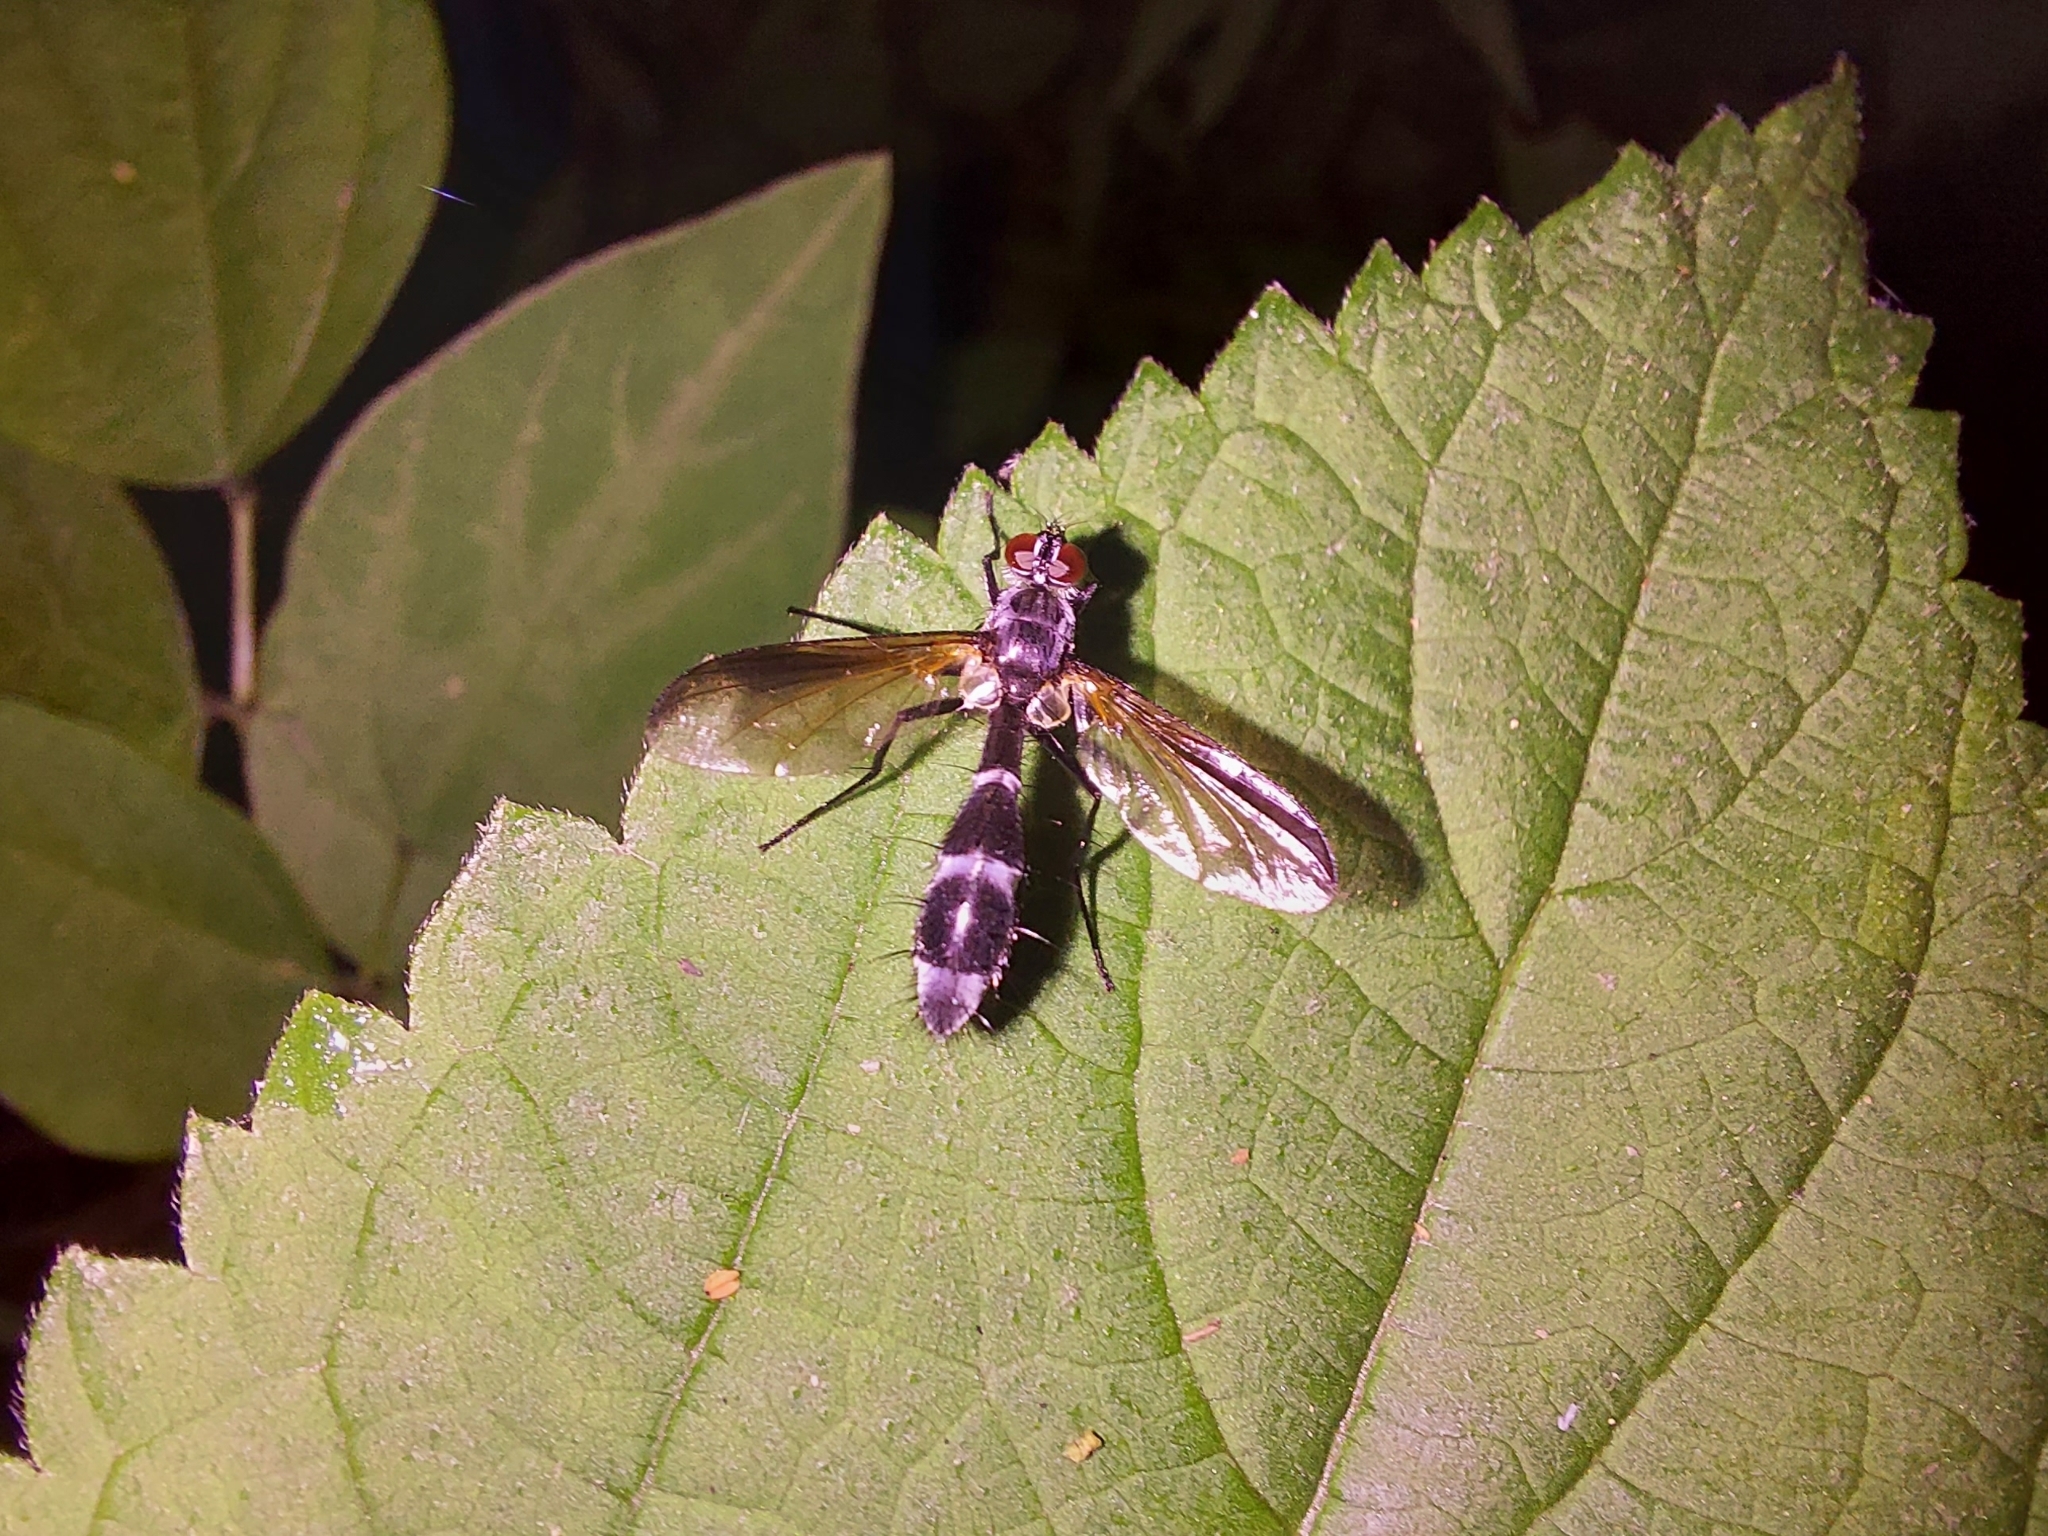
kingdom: Animalia
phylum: Arthropoda
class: Insecta
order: Diptera
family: Tachinidae
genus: Cordyligaster
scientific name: Cordyligaster septentrionalis
